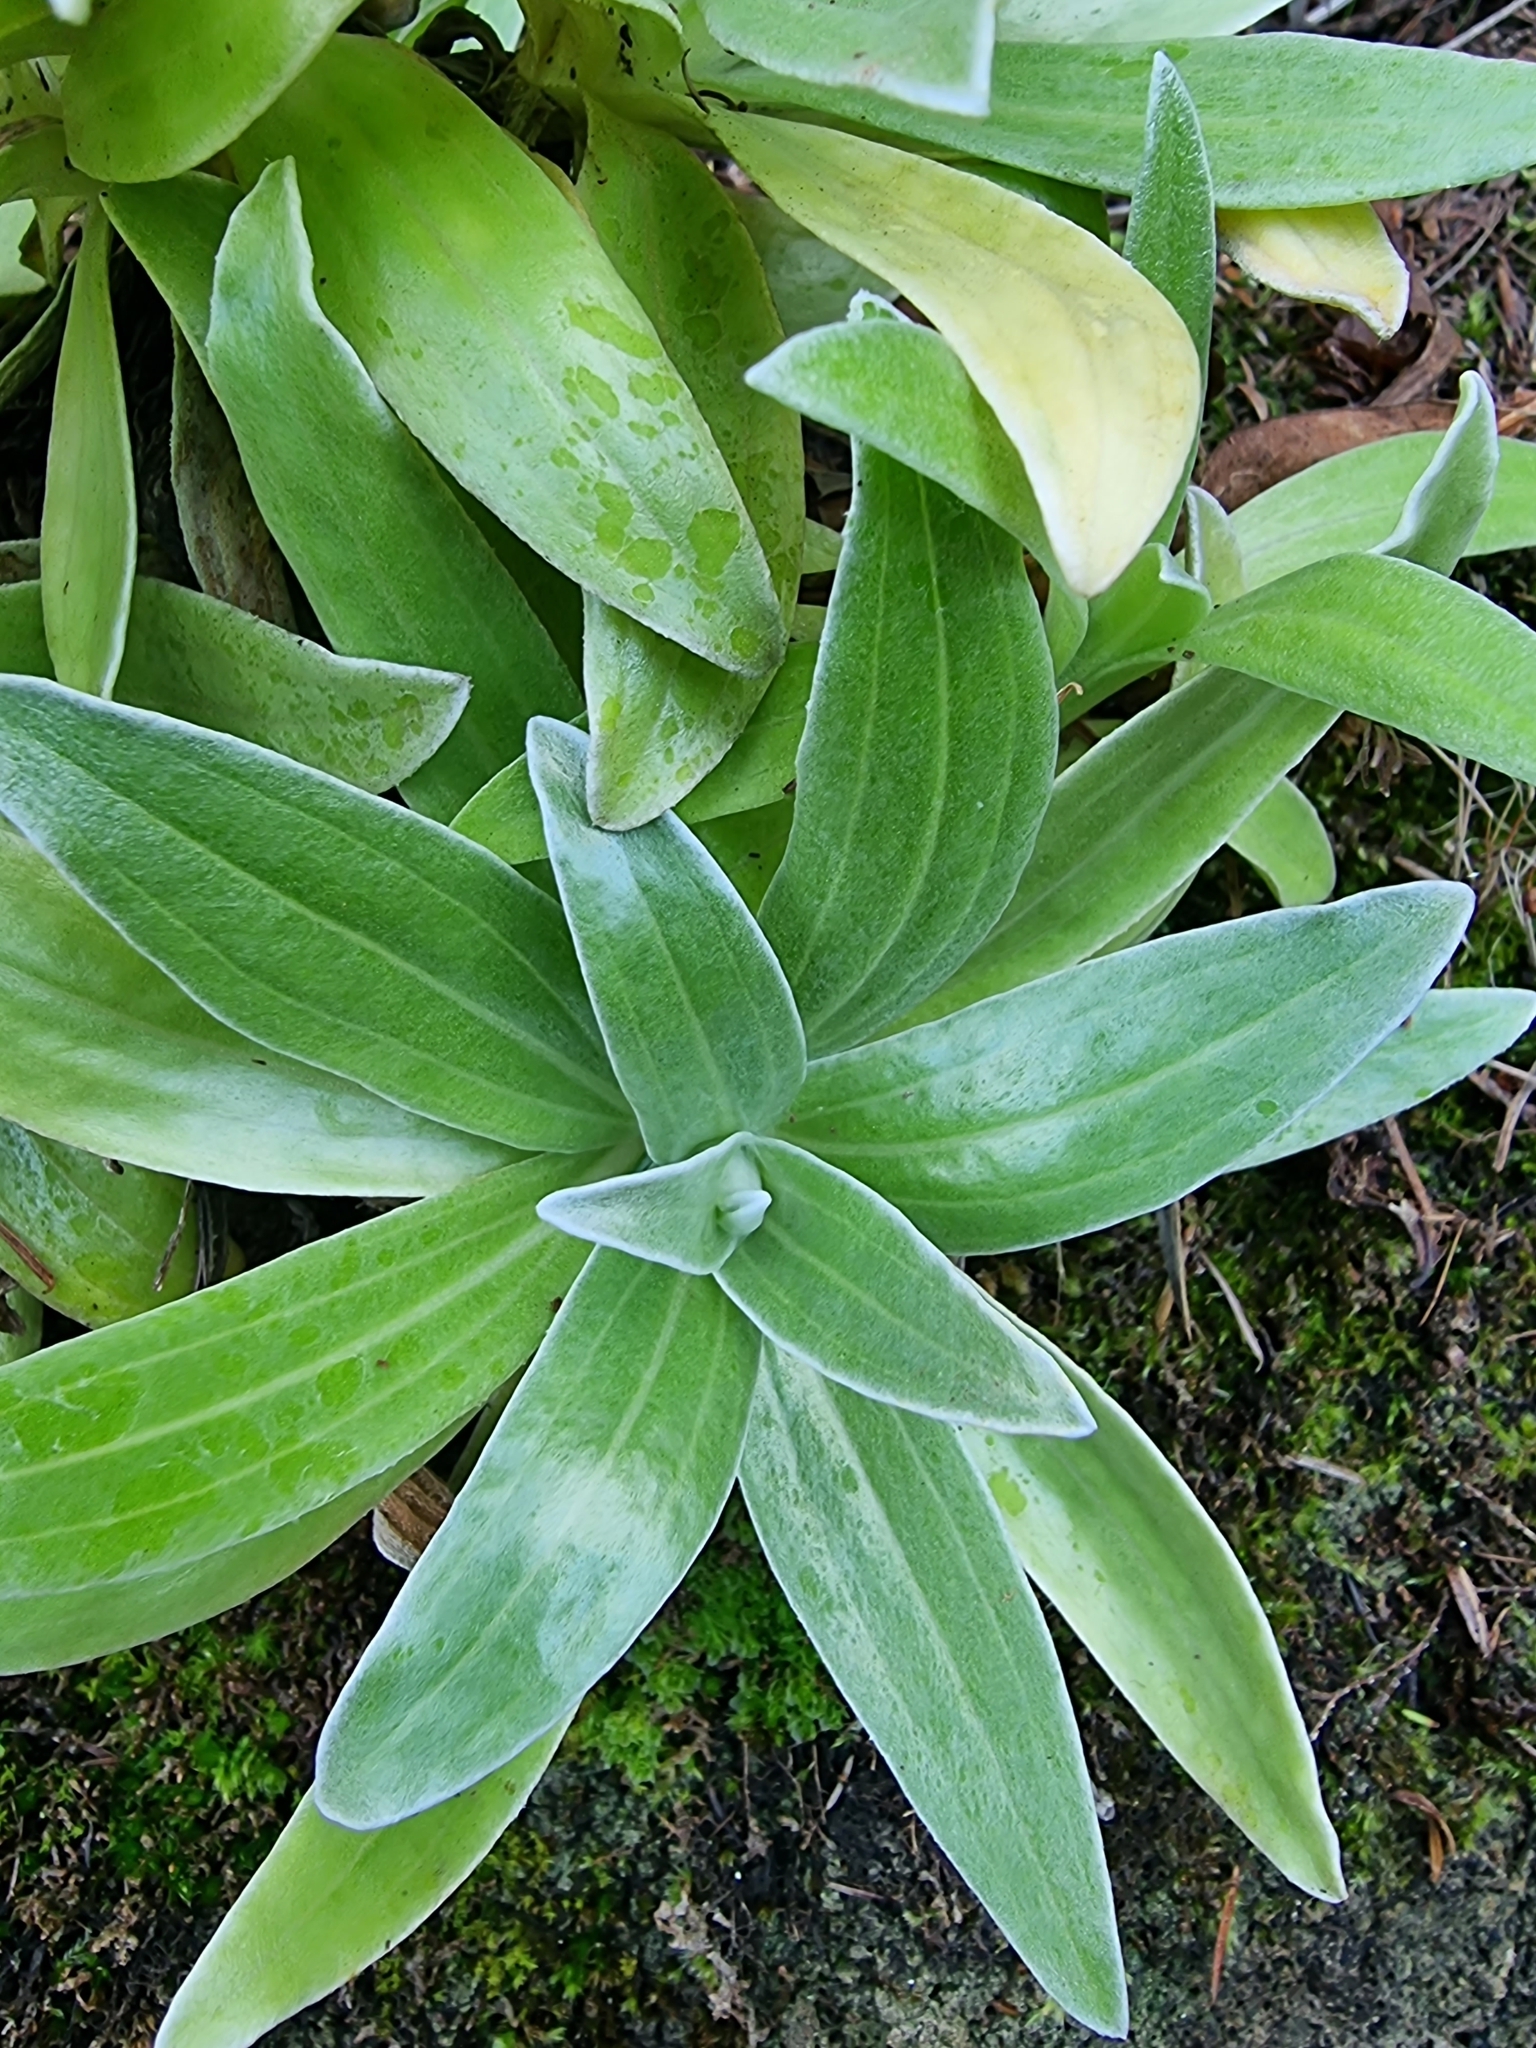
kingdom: Plantae
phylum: Tracheophyta
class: Magnoliopsida
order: Asterales
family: Asteraceae
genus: Helichrysum
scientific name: Helichrysum devium
